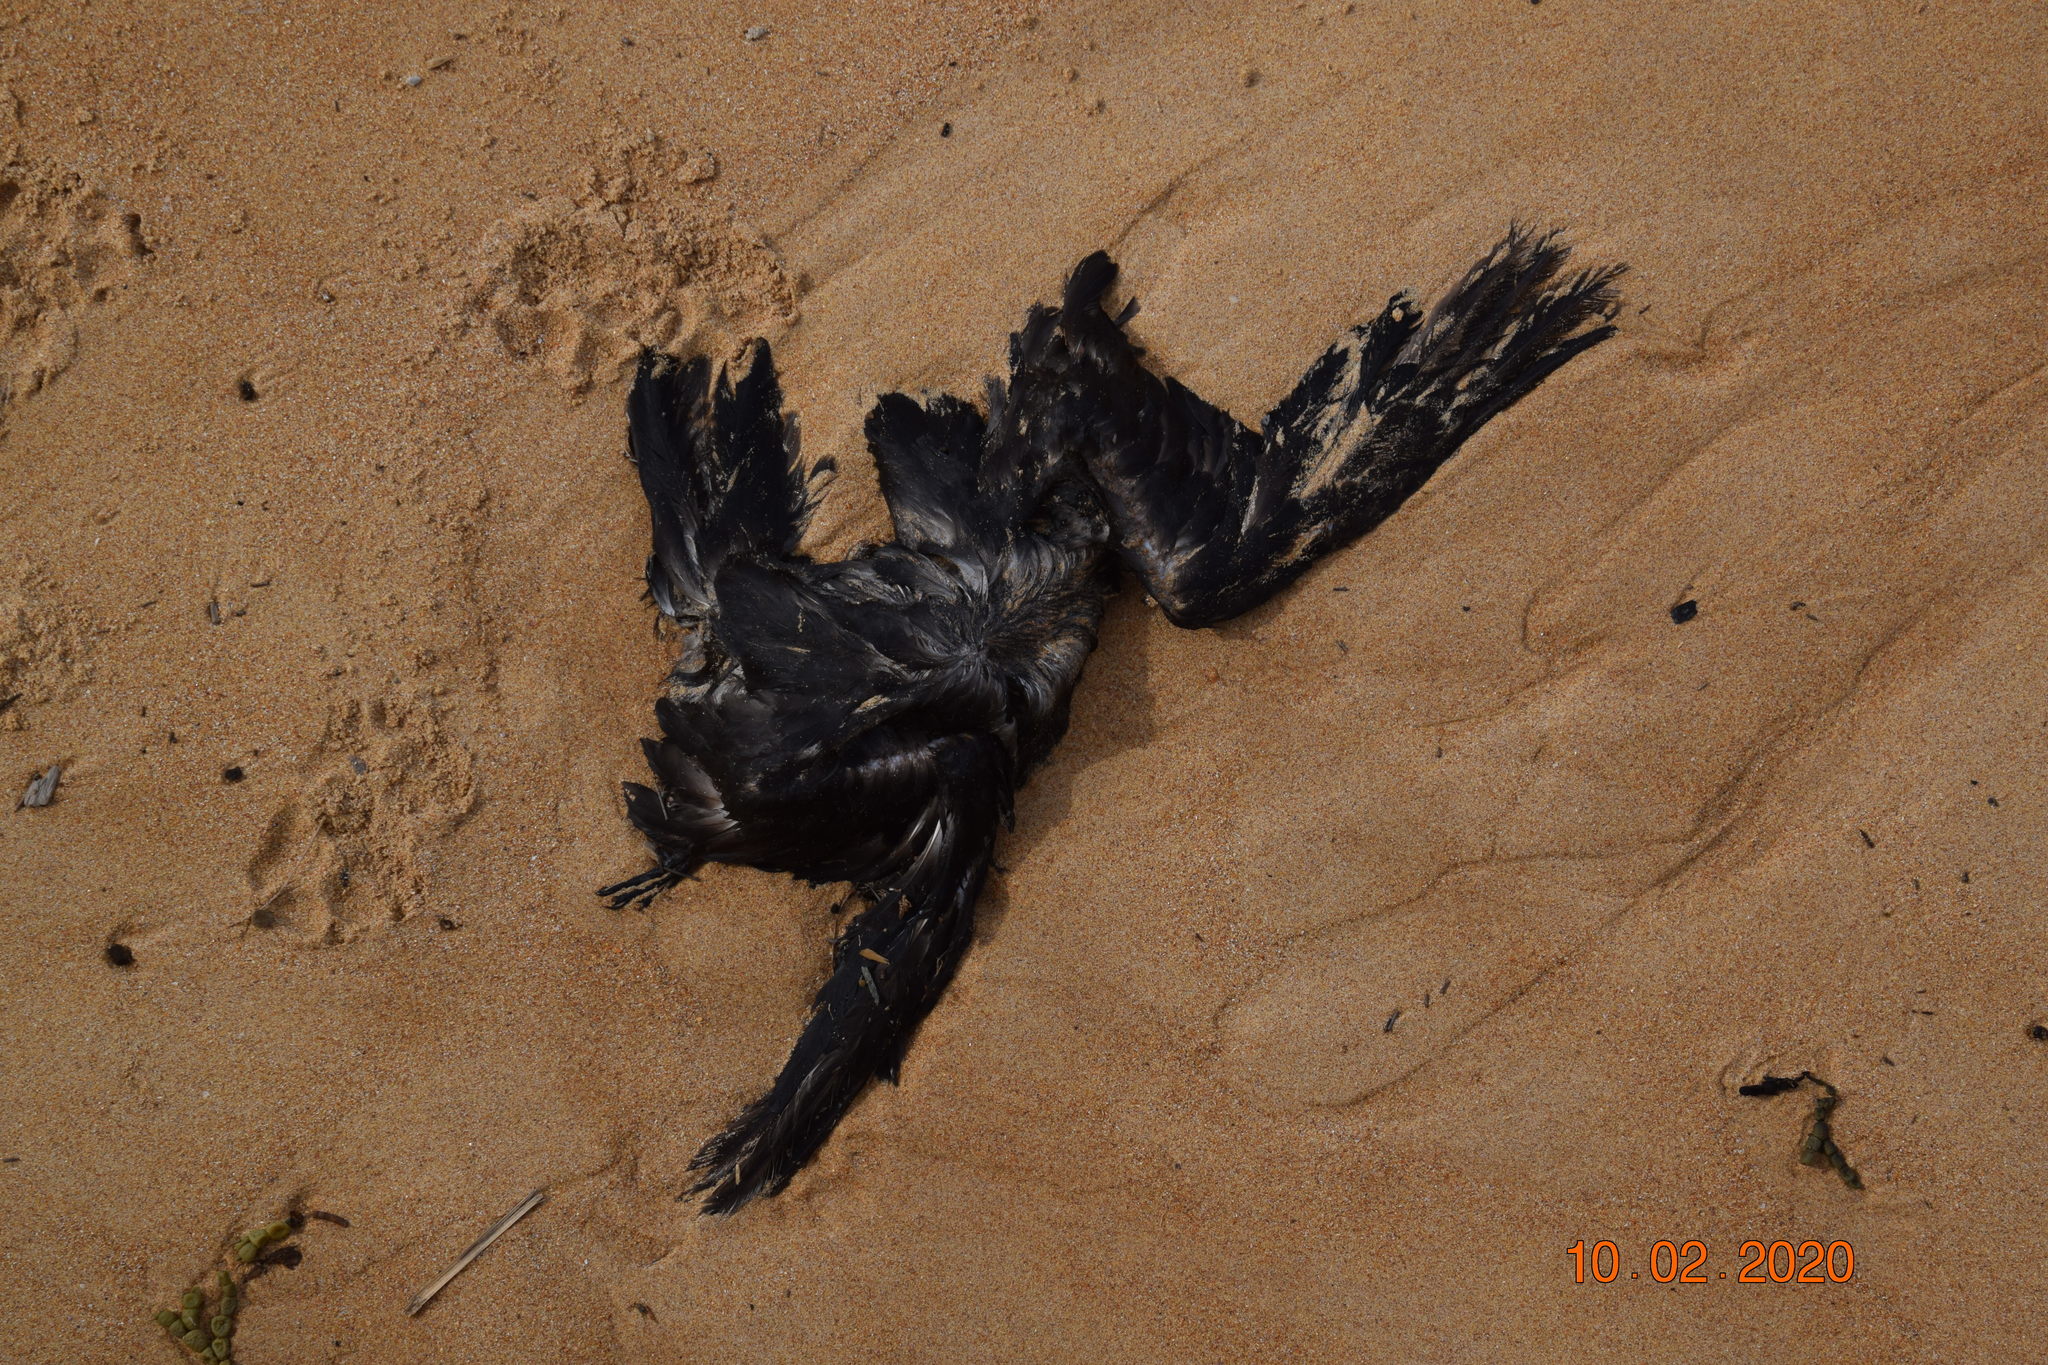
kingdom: Animalia
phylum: Chordata
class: Aves
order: Procellariiformes
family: Procellariidae
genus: Puffinus
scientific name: Puffinus pacificus
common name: Wedge-tailed shearwater
